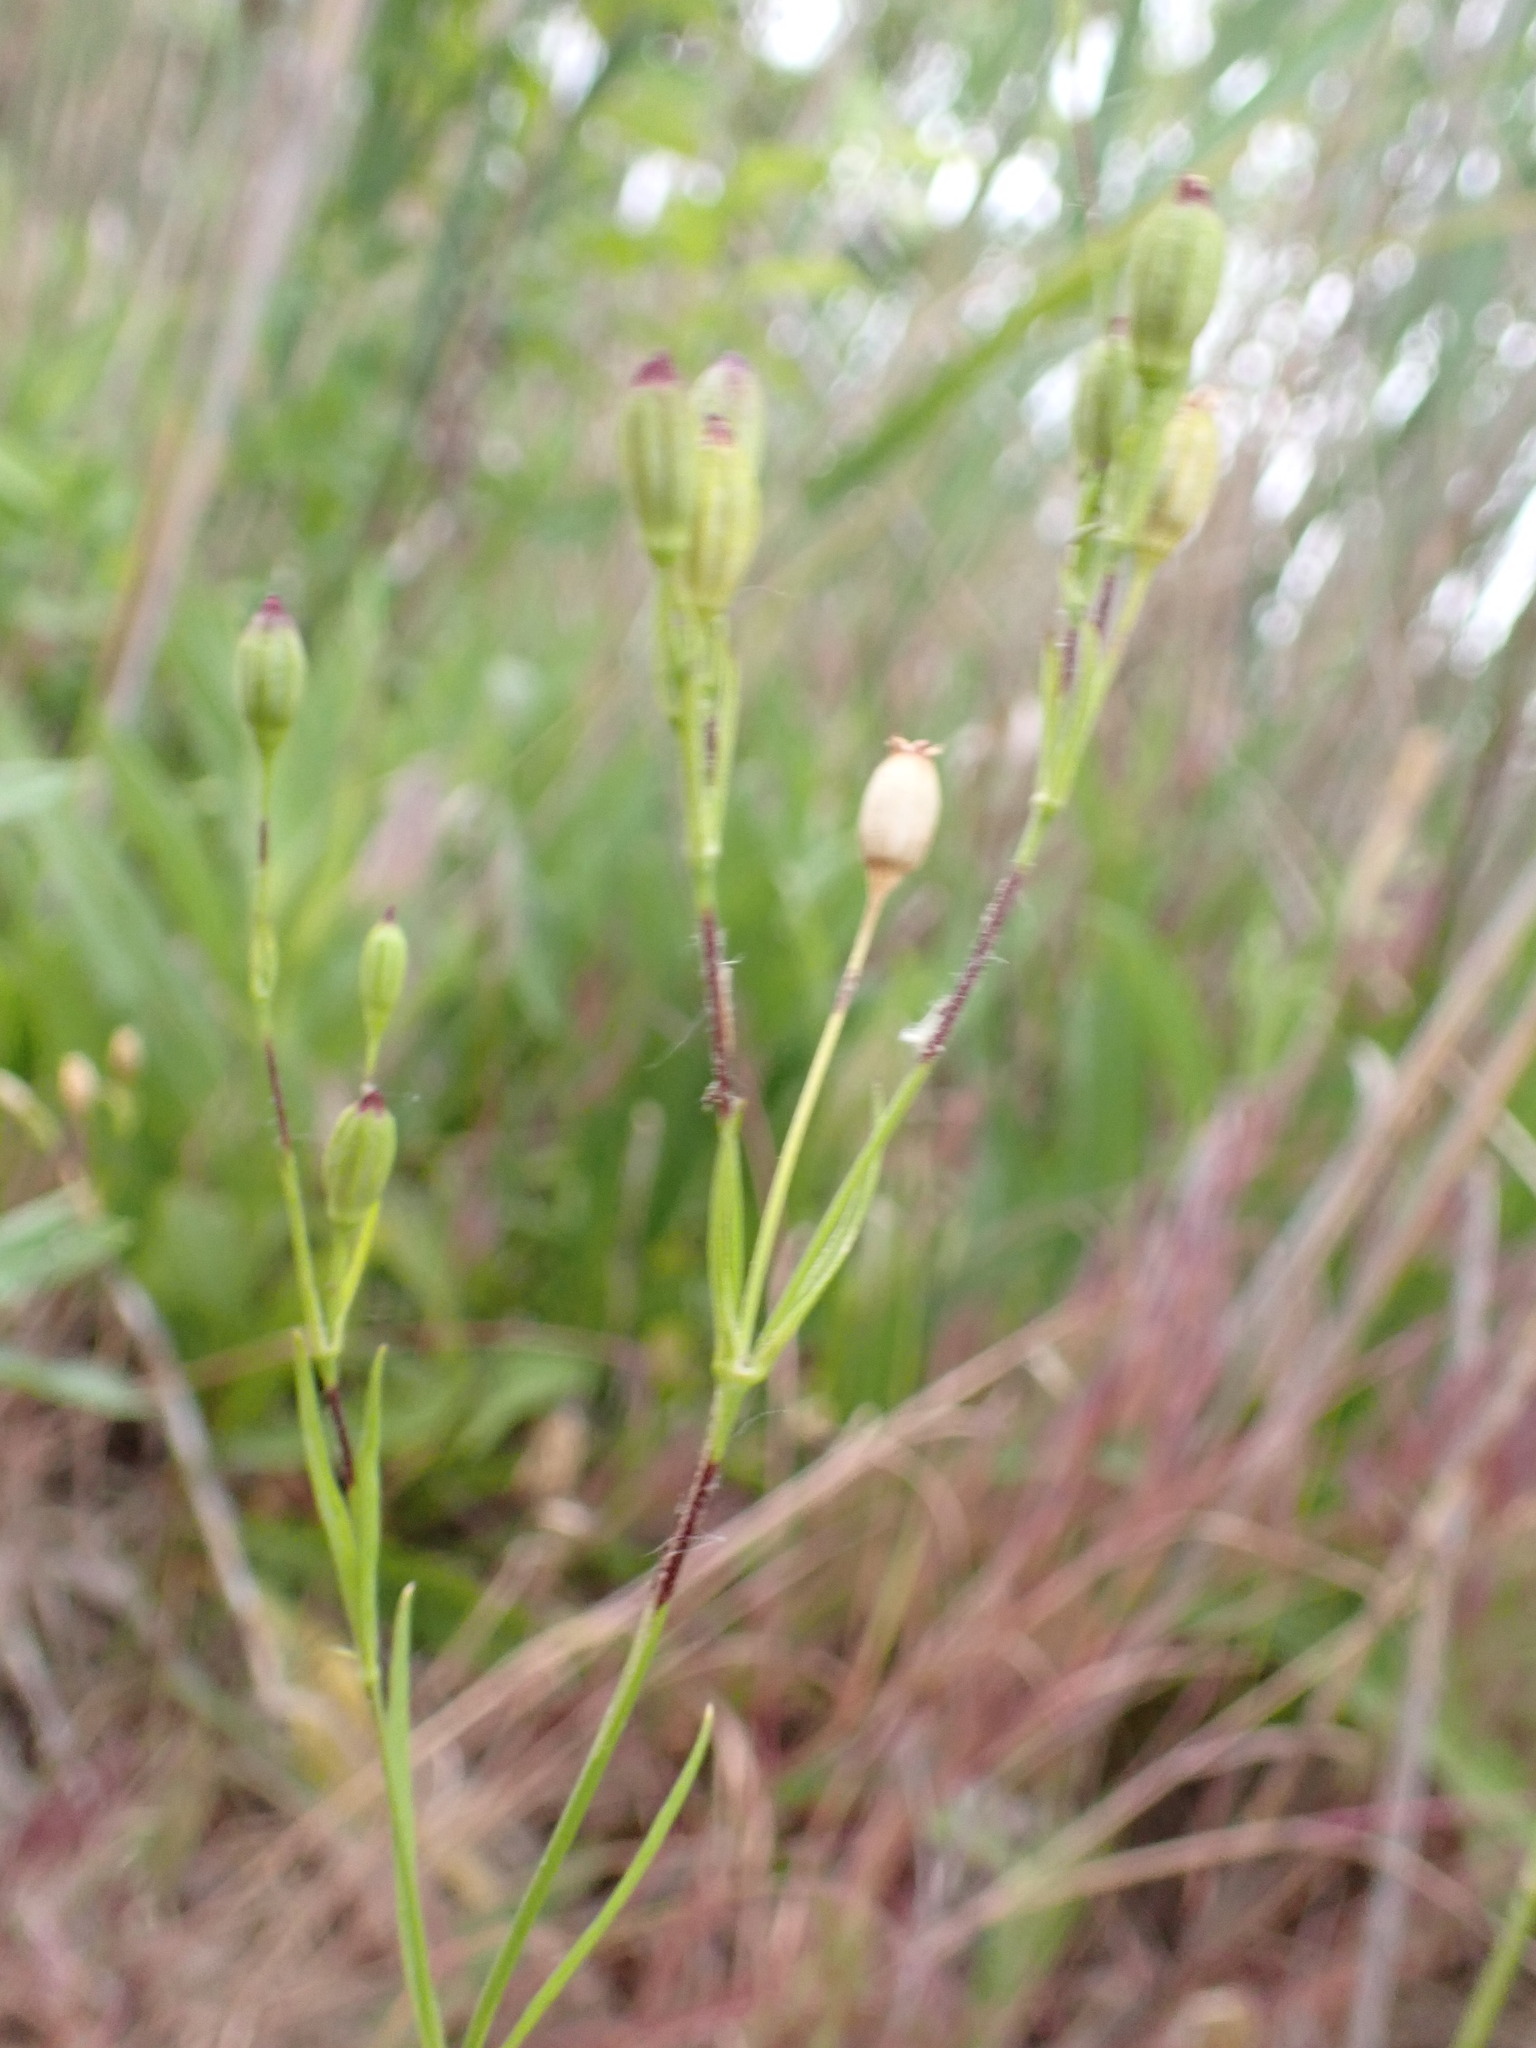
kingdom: Plantae
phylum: Tracheophyta
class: Magnoliopsida
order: Caryophyllales
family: Caryophyllaceae
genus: Silene
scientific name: Silene antirrhina
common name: Sleepy catchfly
